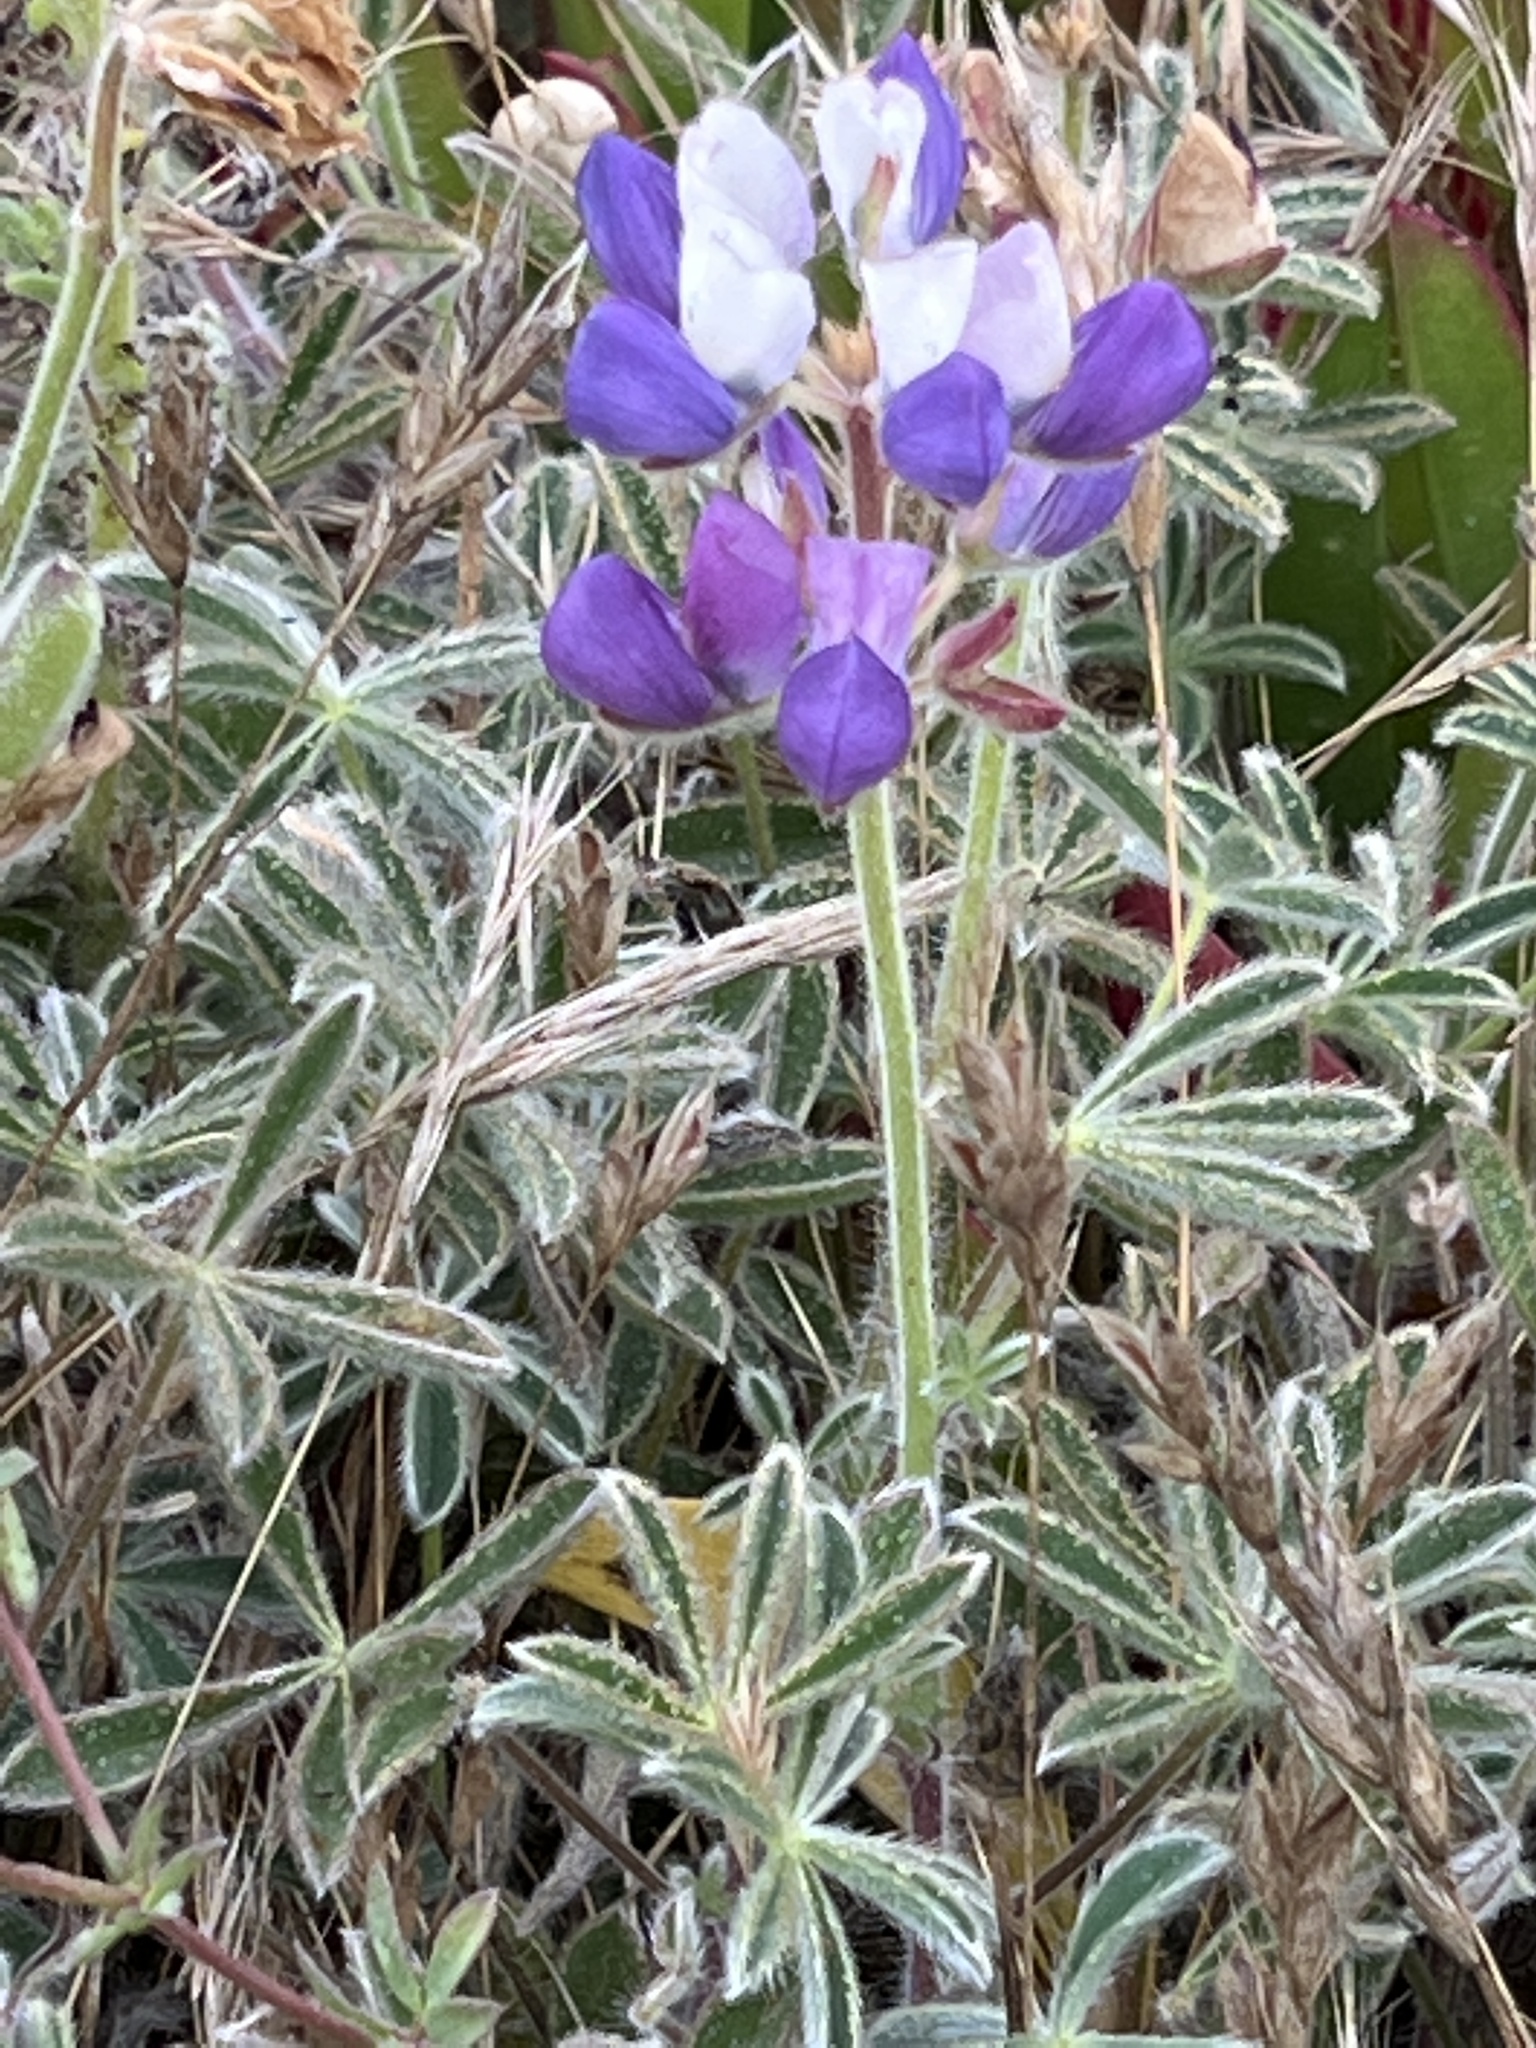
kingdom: Plantae
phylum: Tracheophyta
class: Magnoliopsida
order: Fabales
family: Fabaceae
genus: Lupinus
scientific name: Lupinus variicolor
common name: Lindley's varied lupine
